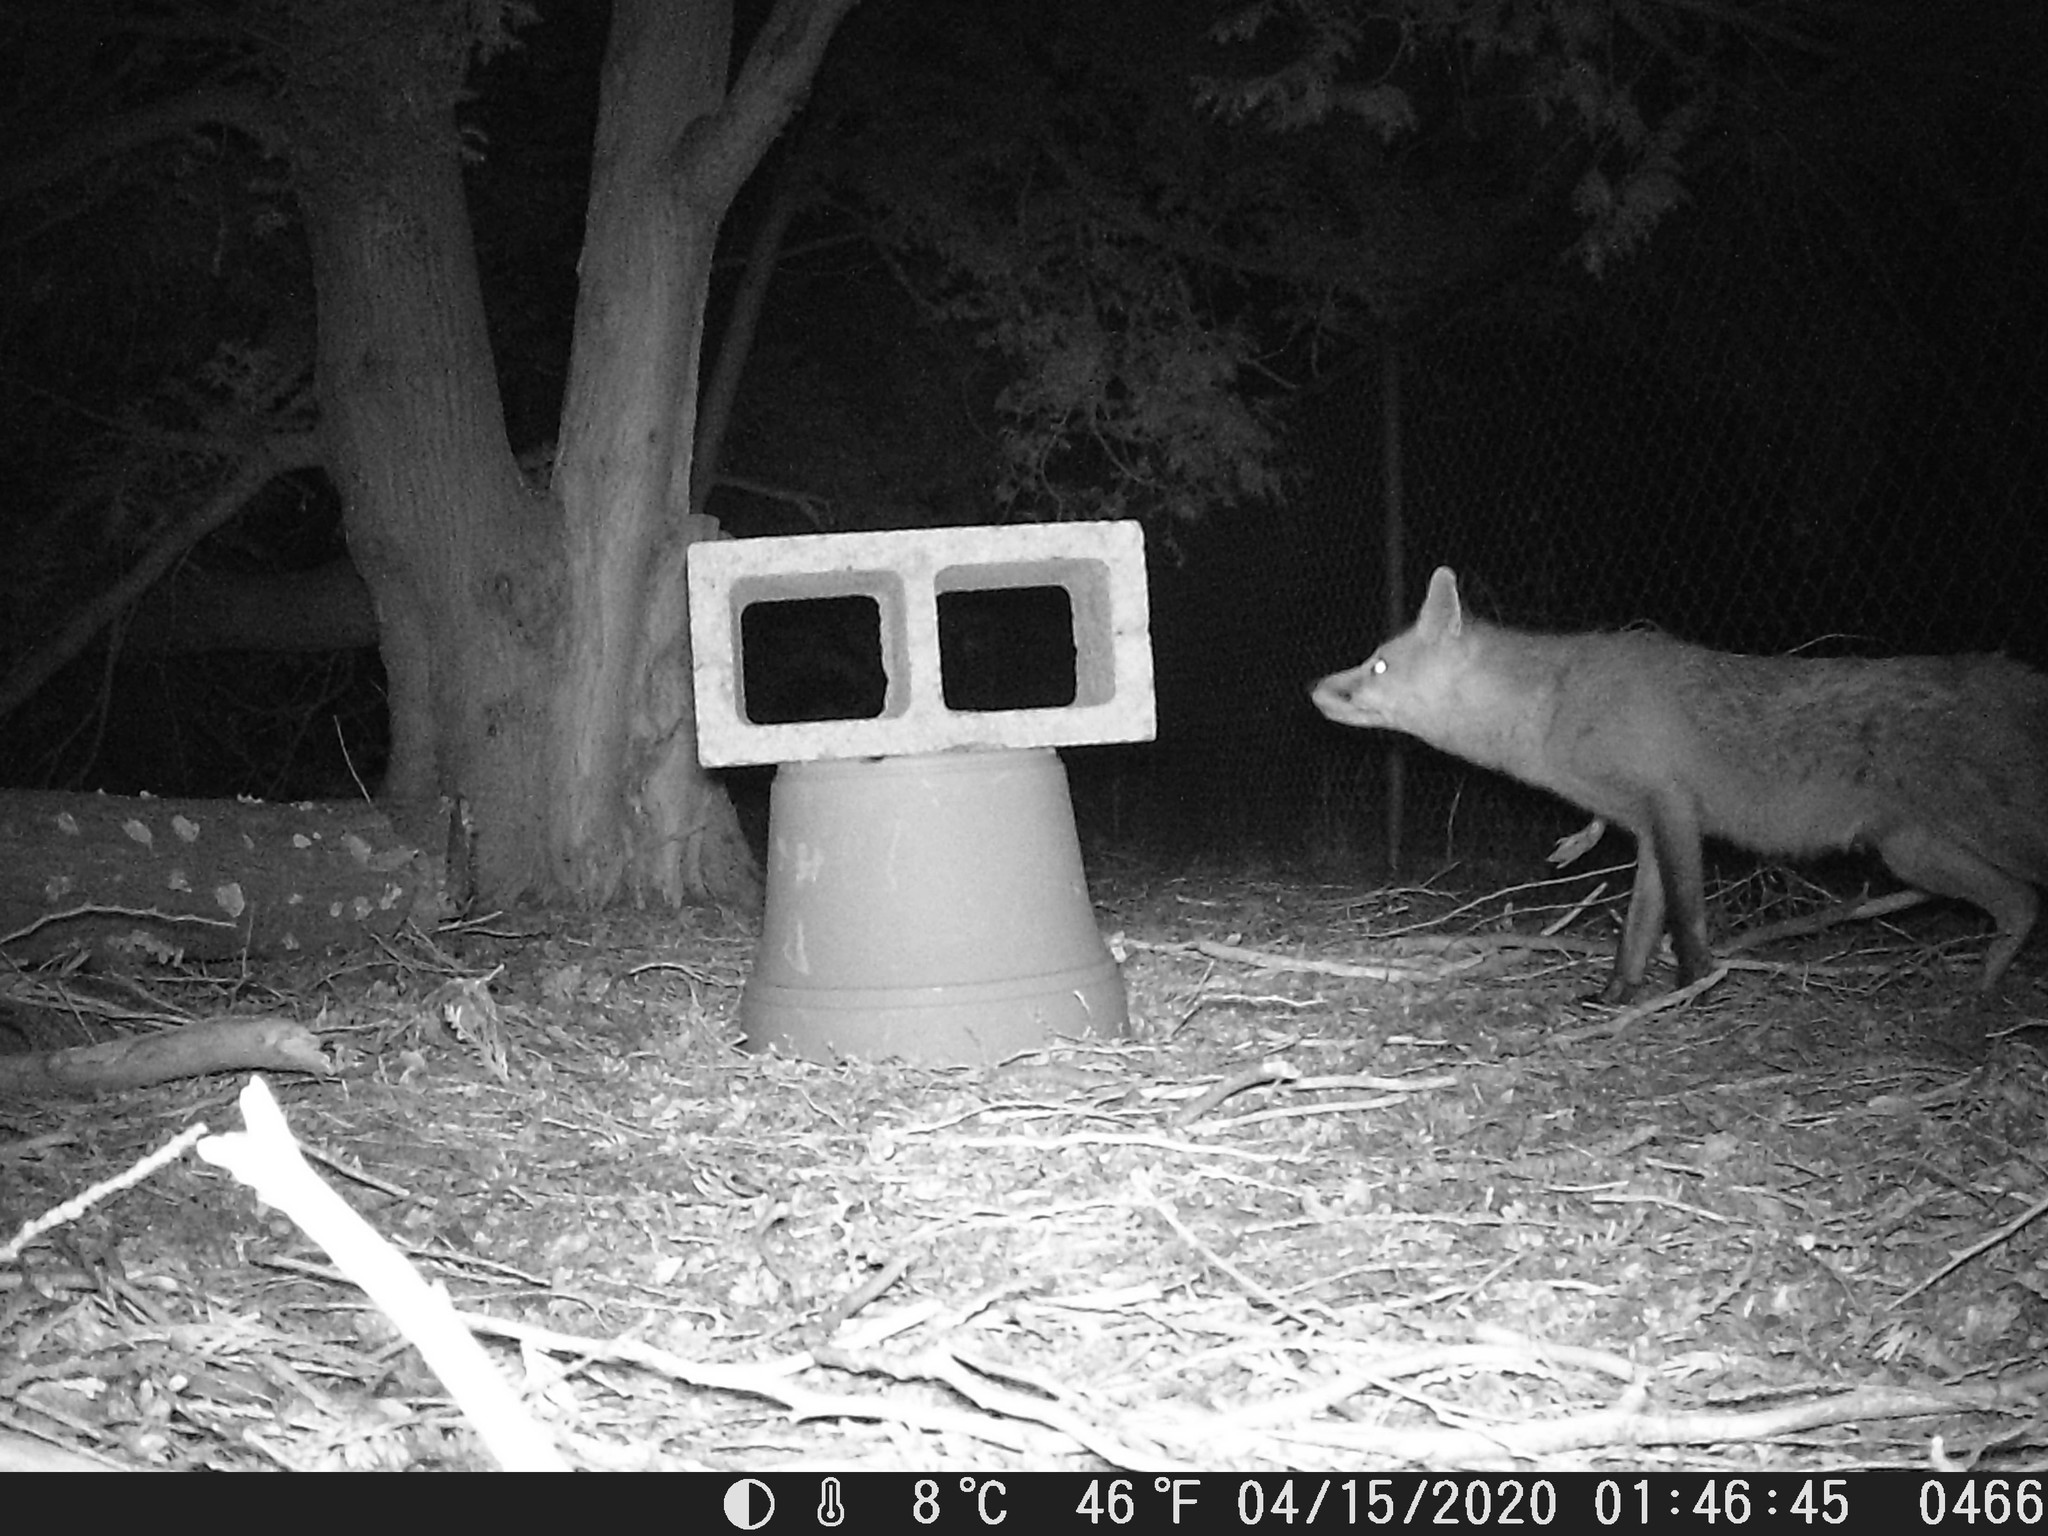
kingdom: Animalia
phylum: Chordata
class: Mammalia
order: Carnivora
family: Canidae
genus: Vulpes
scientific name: Vulpes vulpes
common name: Red fox
